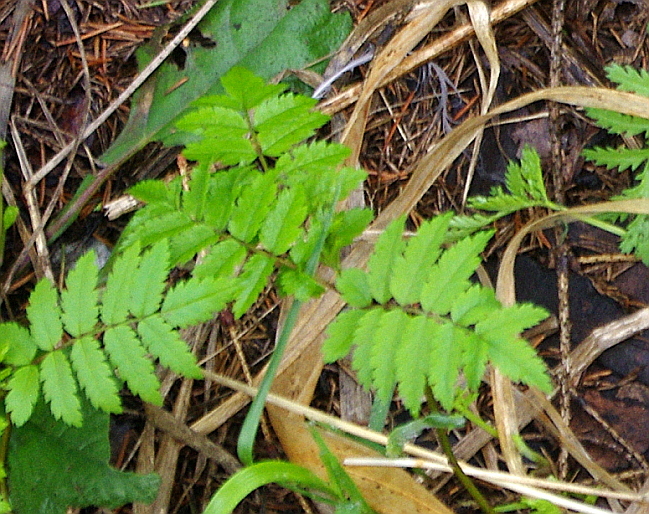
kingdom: Plantae
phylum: Tracheophyta
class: Magnoliopsida
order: Rosales
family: Rosaceae
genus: Sorbus
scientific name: Sorbus aucuparia
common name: Rowan
